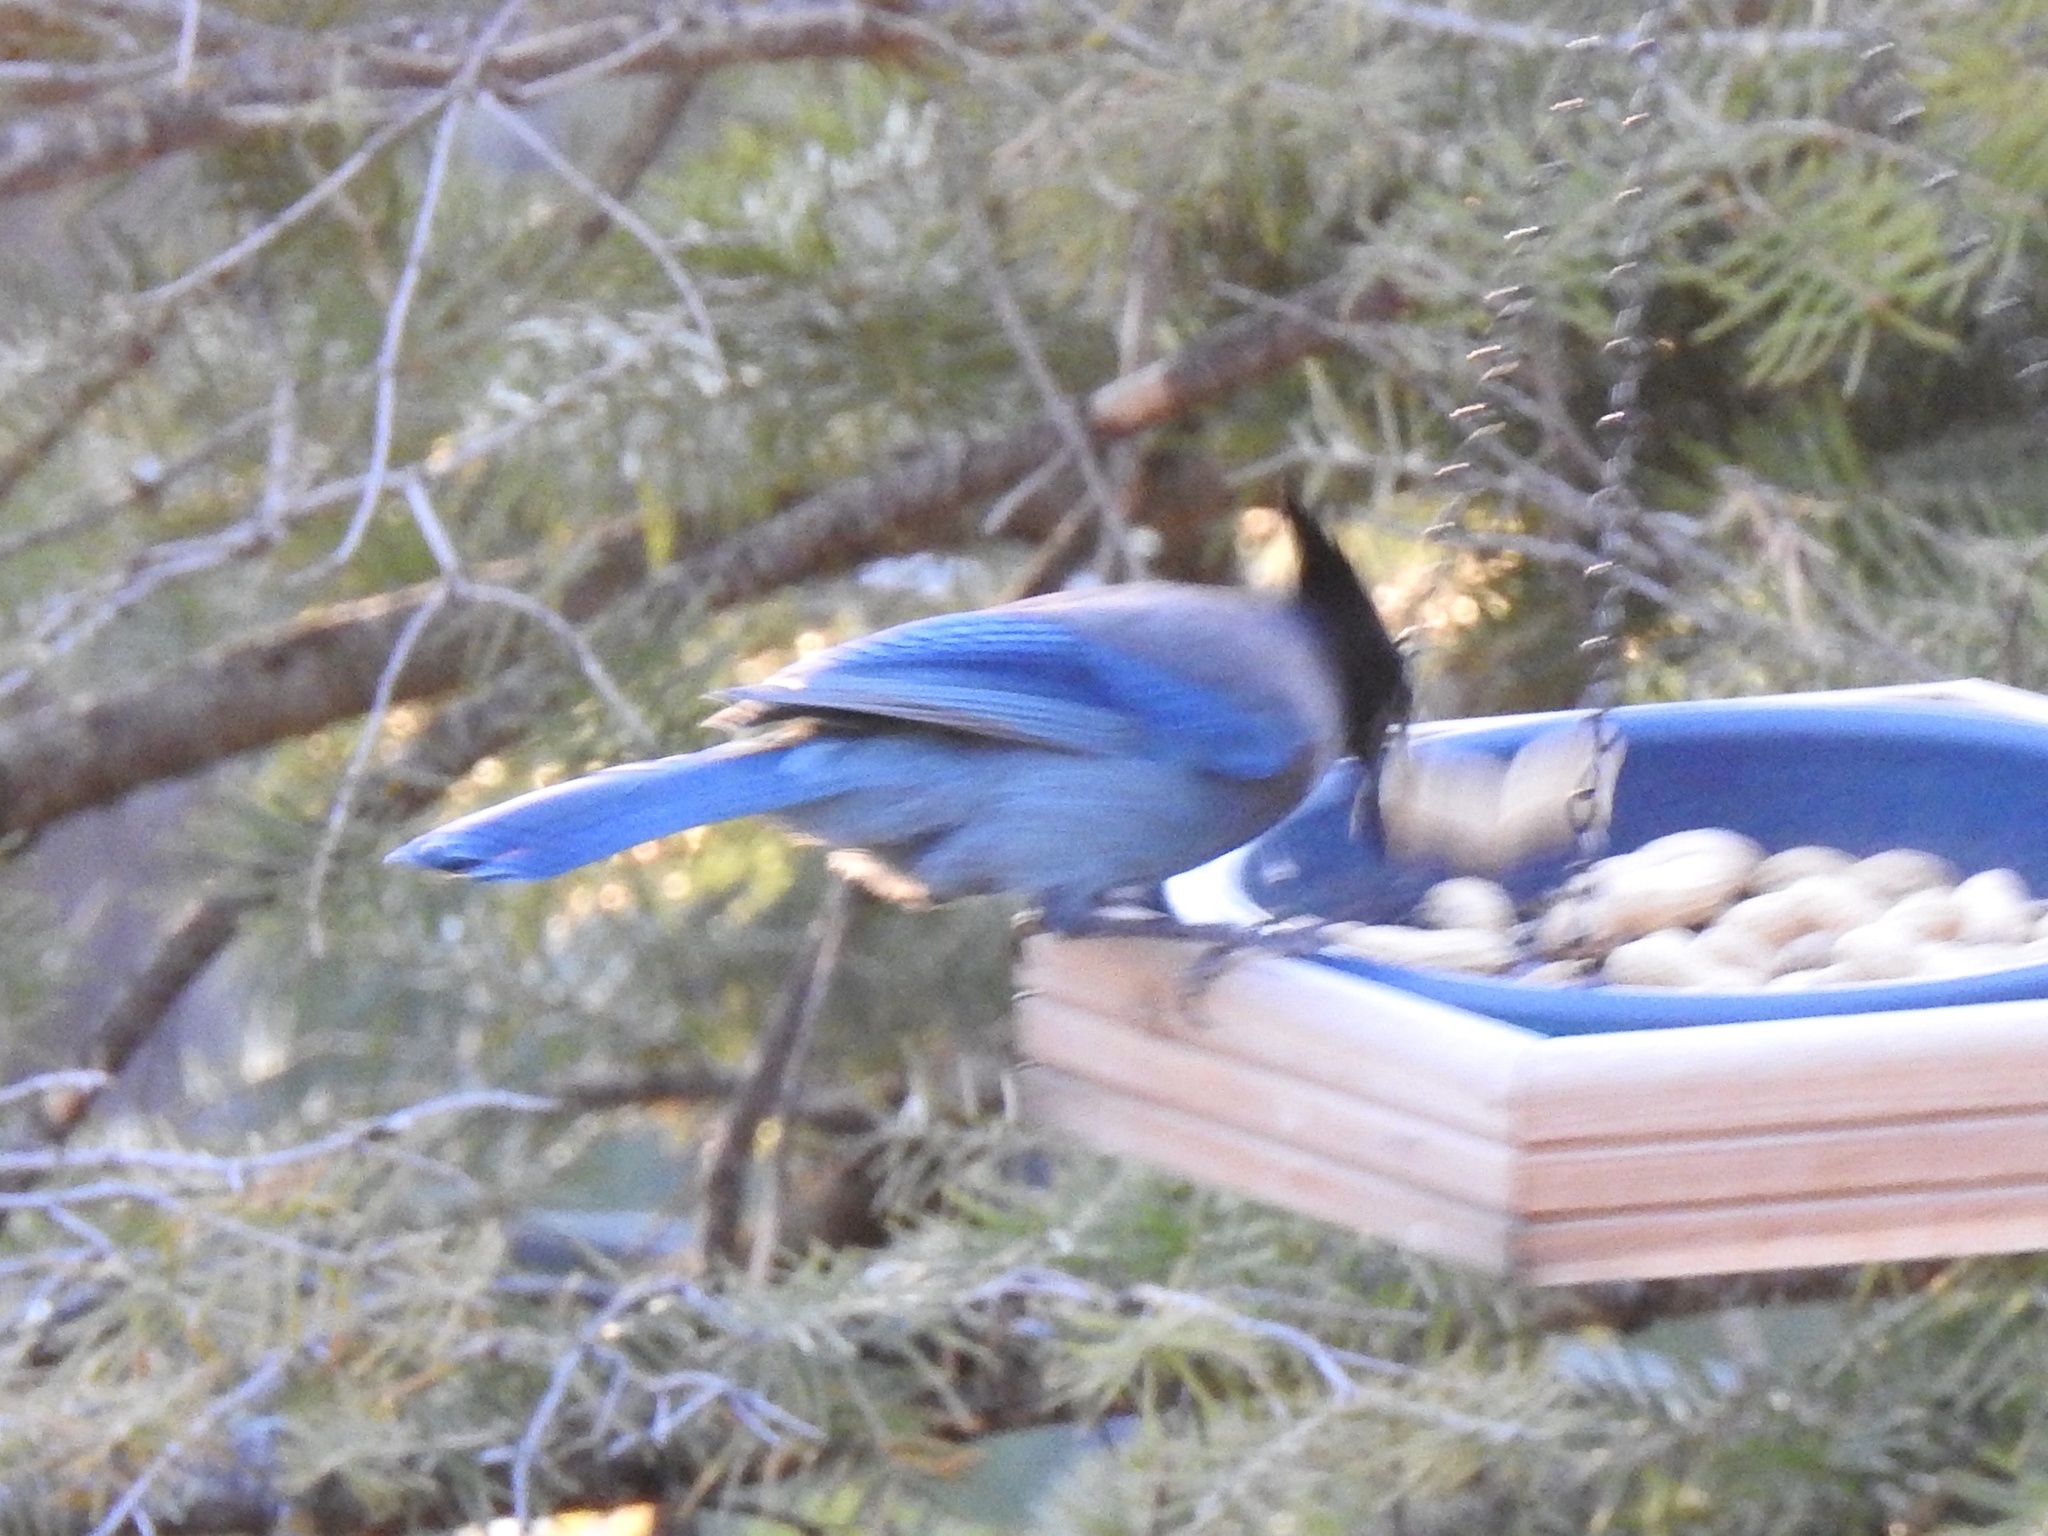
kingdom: Animalia
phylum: Chordata
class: Aves
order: Passeriformes
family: Corvidae
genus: Cyanocitta
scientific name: Cyanocitta stelleri
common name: Steller's jay
